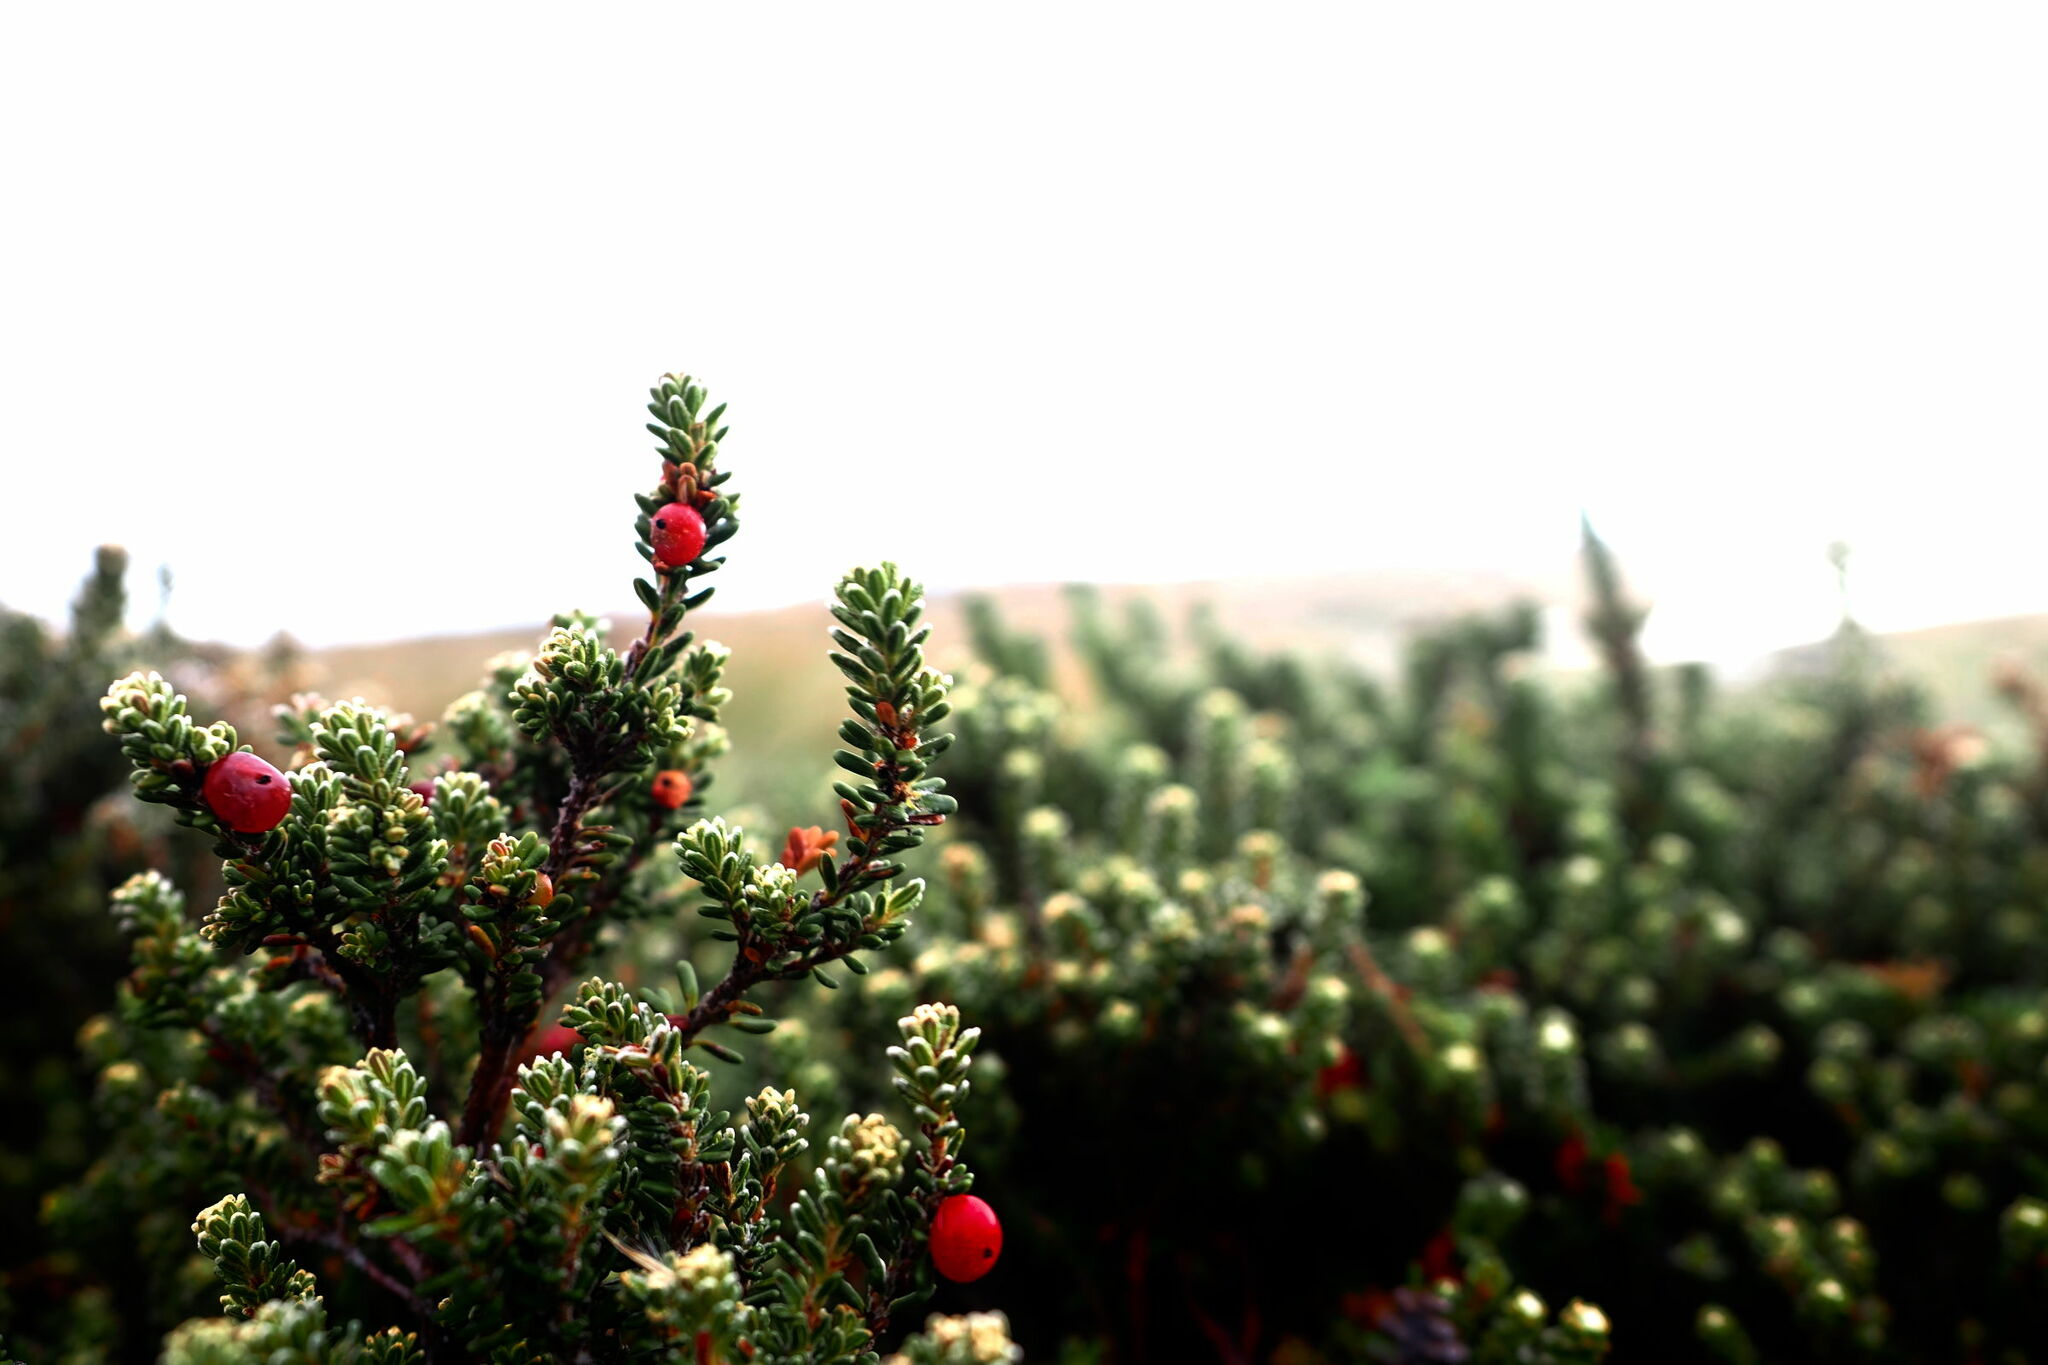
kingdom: Plantae
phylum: Tracheophyta
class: Magnoliopsida
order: Ericales
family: Ericaceae
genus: Empetrum
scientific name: Empetrum rubrum
